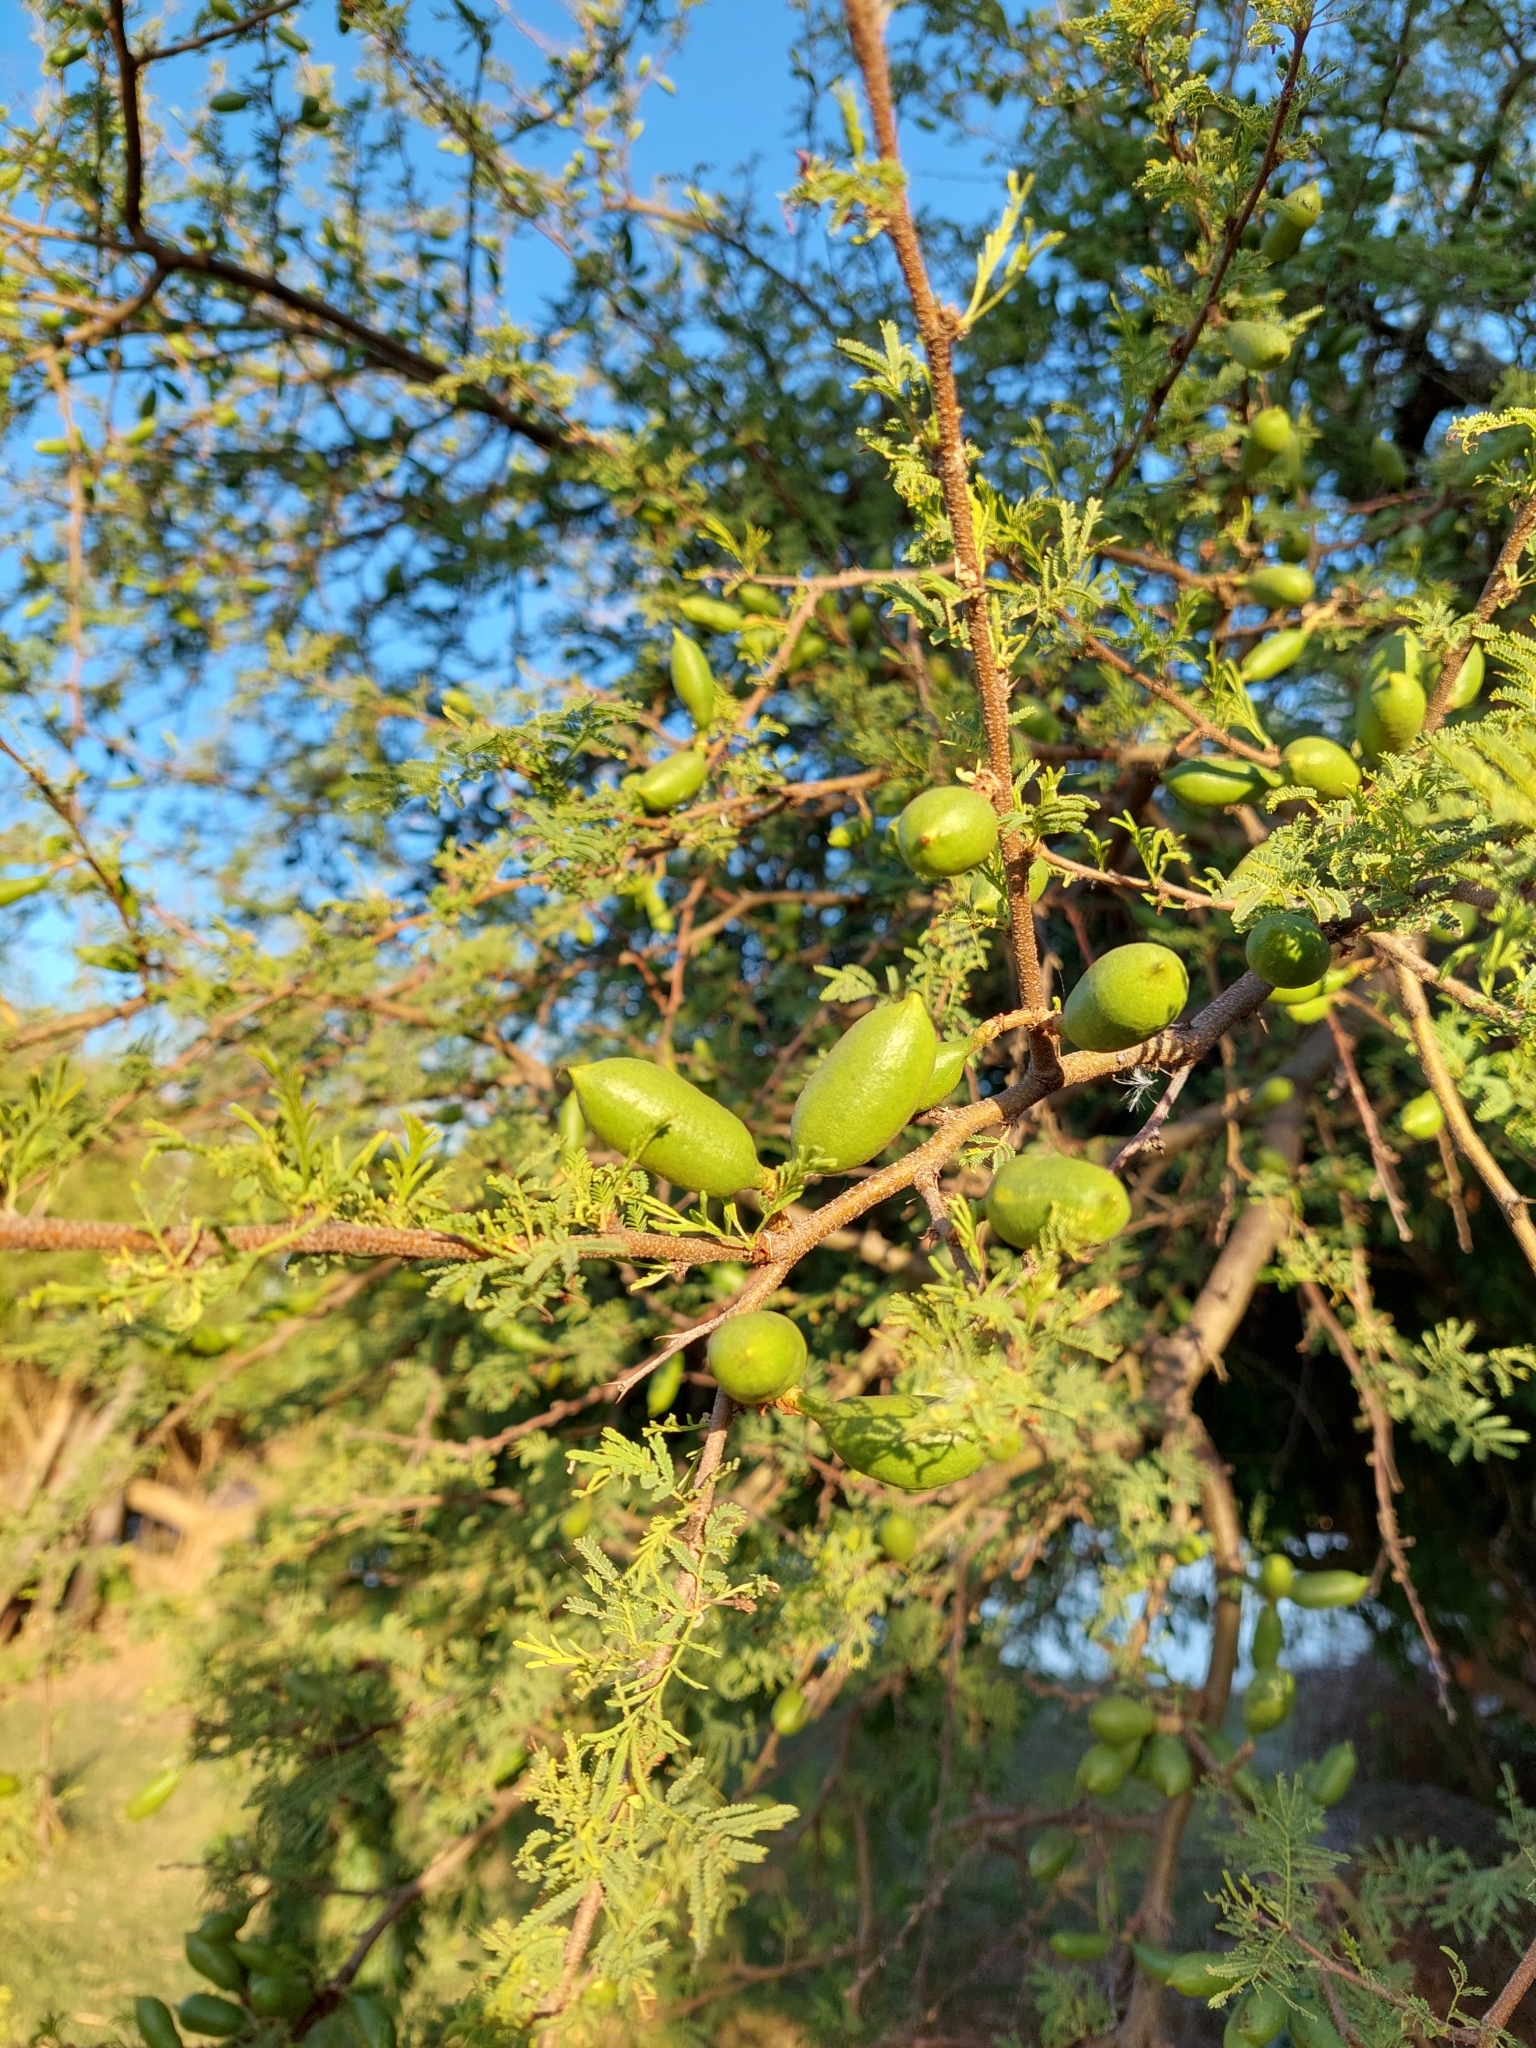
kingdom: Plantae
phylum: Tracheophyta
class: Magnoliopsida
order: Fabales
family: Fabaceae
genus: Vachellia
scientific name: Vachellia caven
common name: Roman cassie
